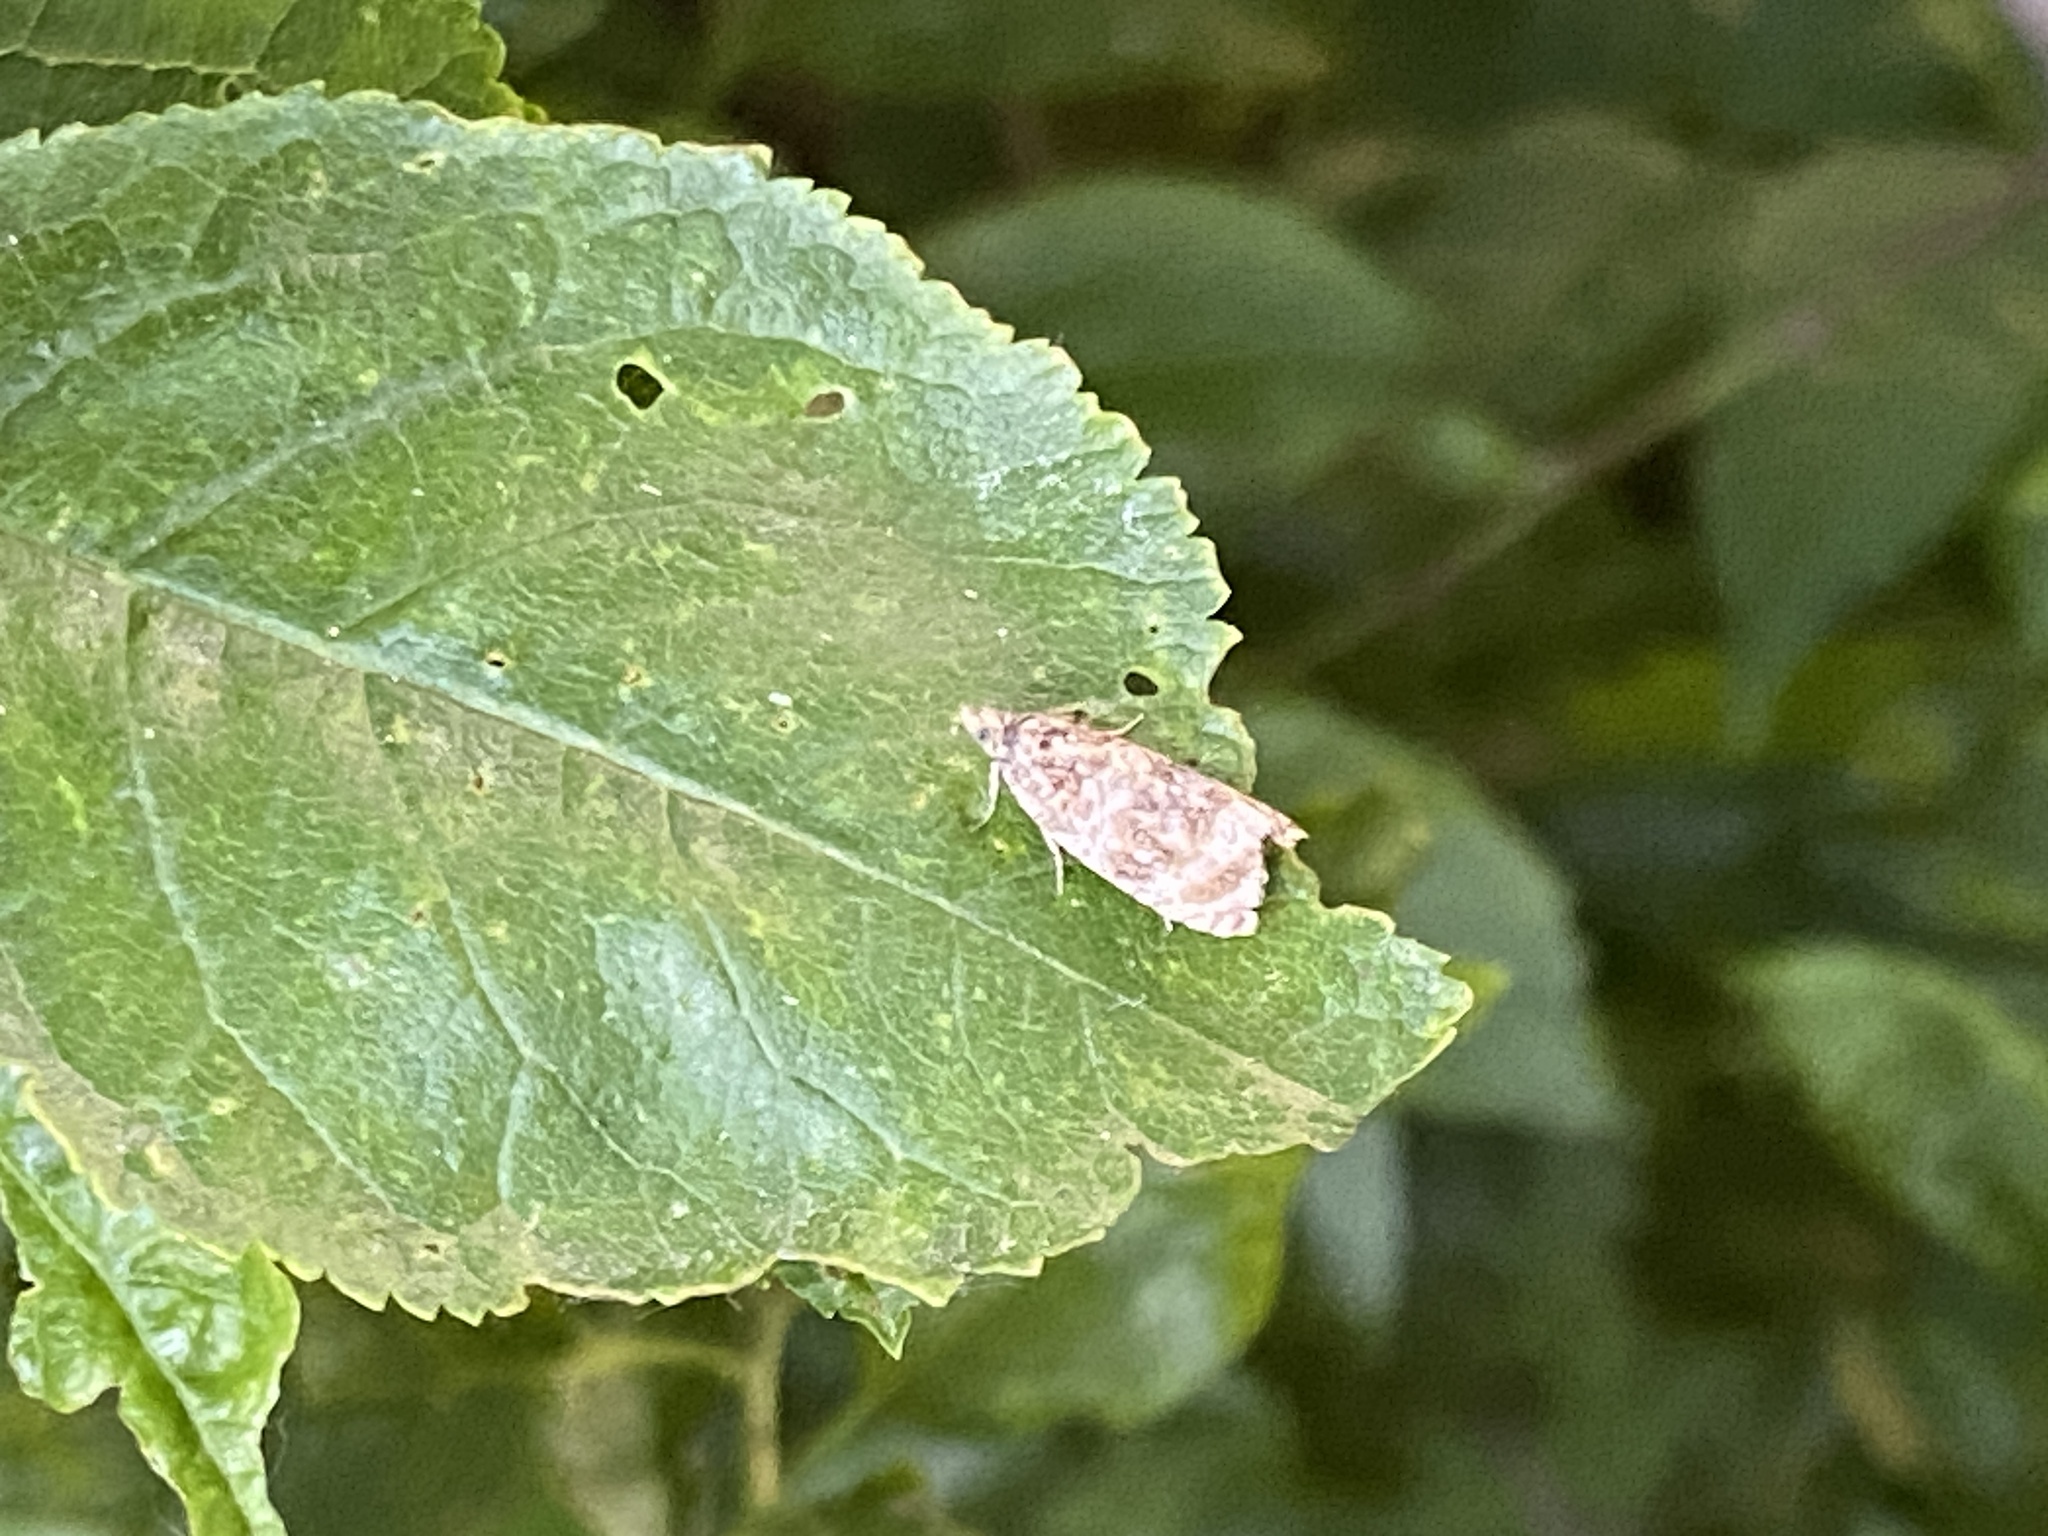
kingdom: Animalia
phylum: Arthropoda
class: Insecta
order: Lepidoptera
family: Tortricidae
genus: Syricoris
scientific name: Syricoris lacunana
